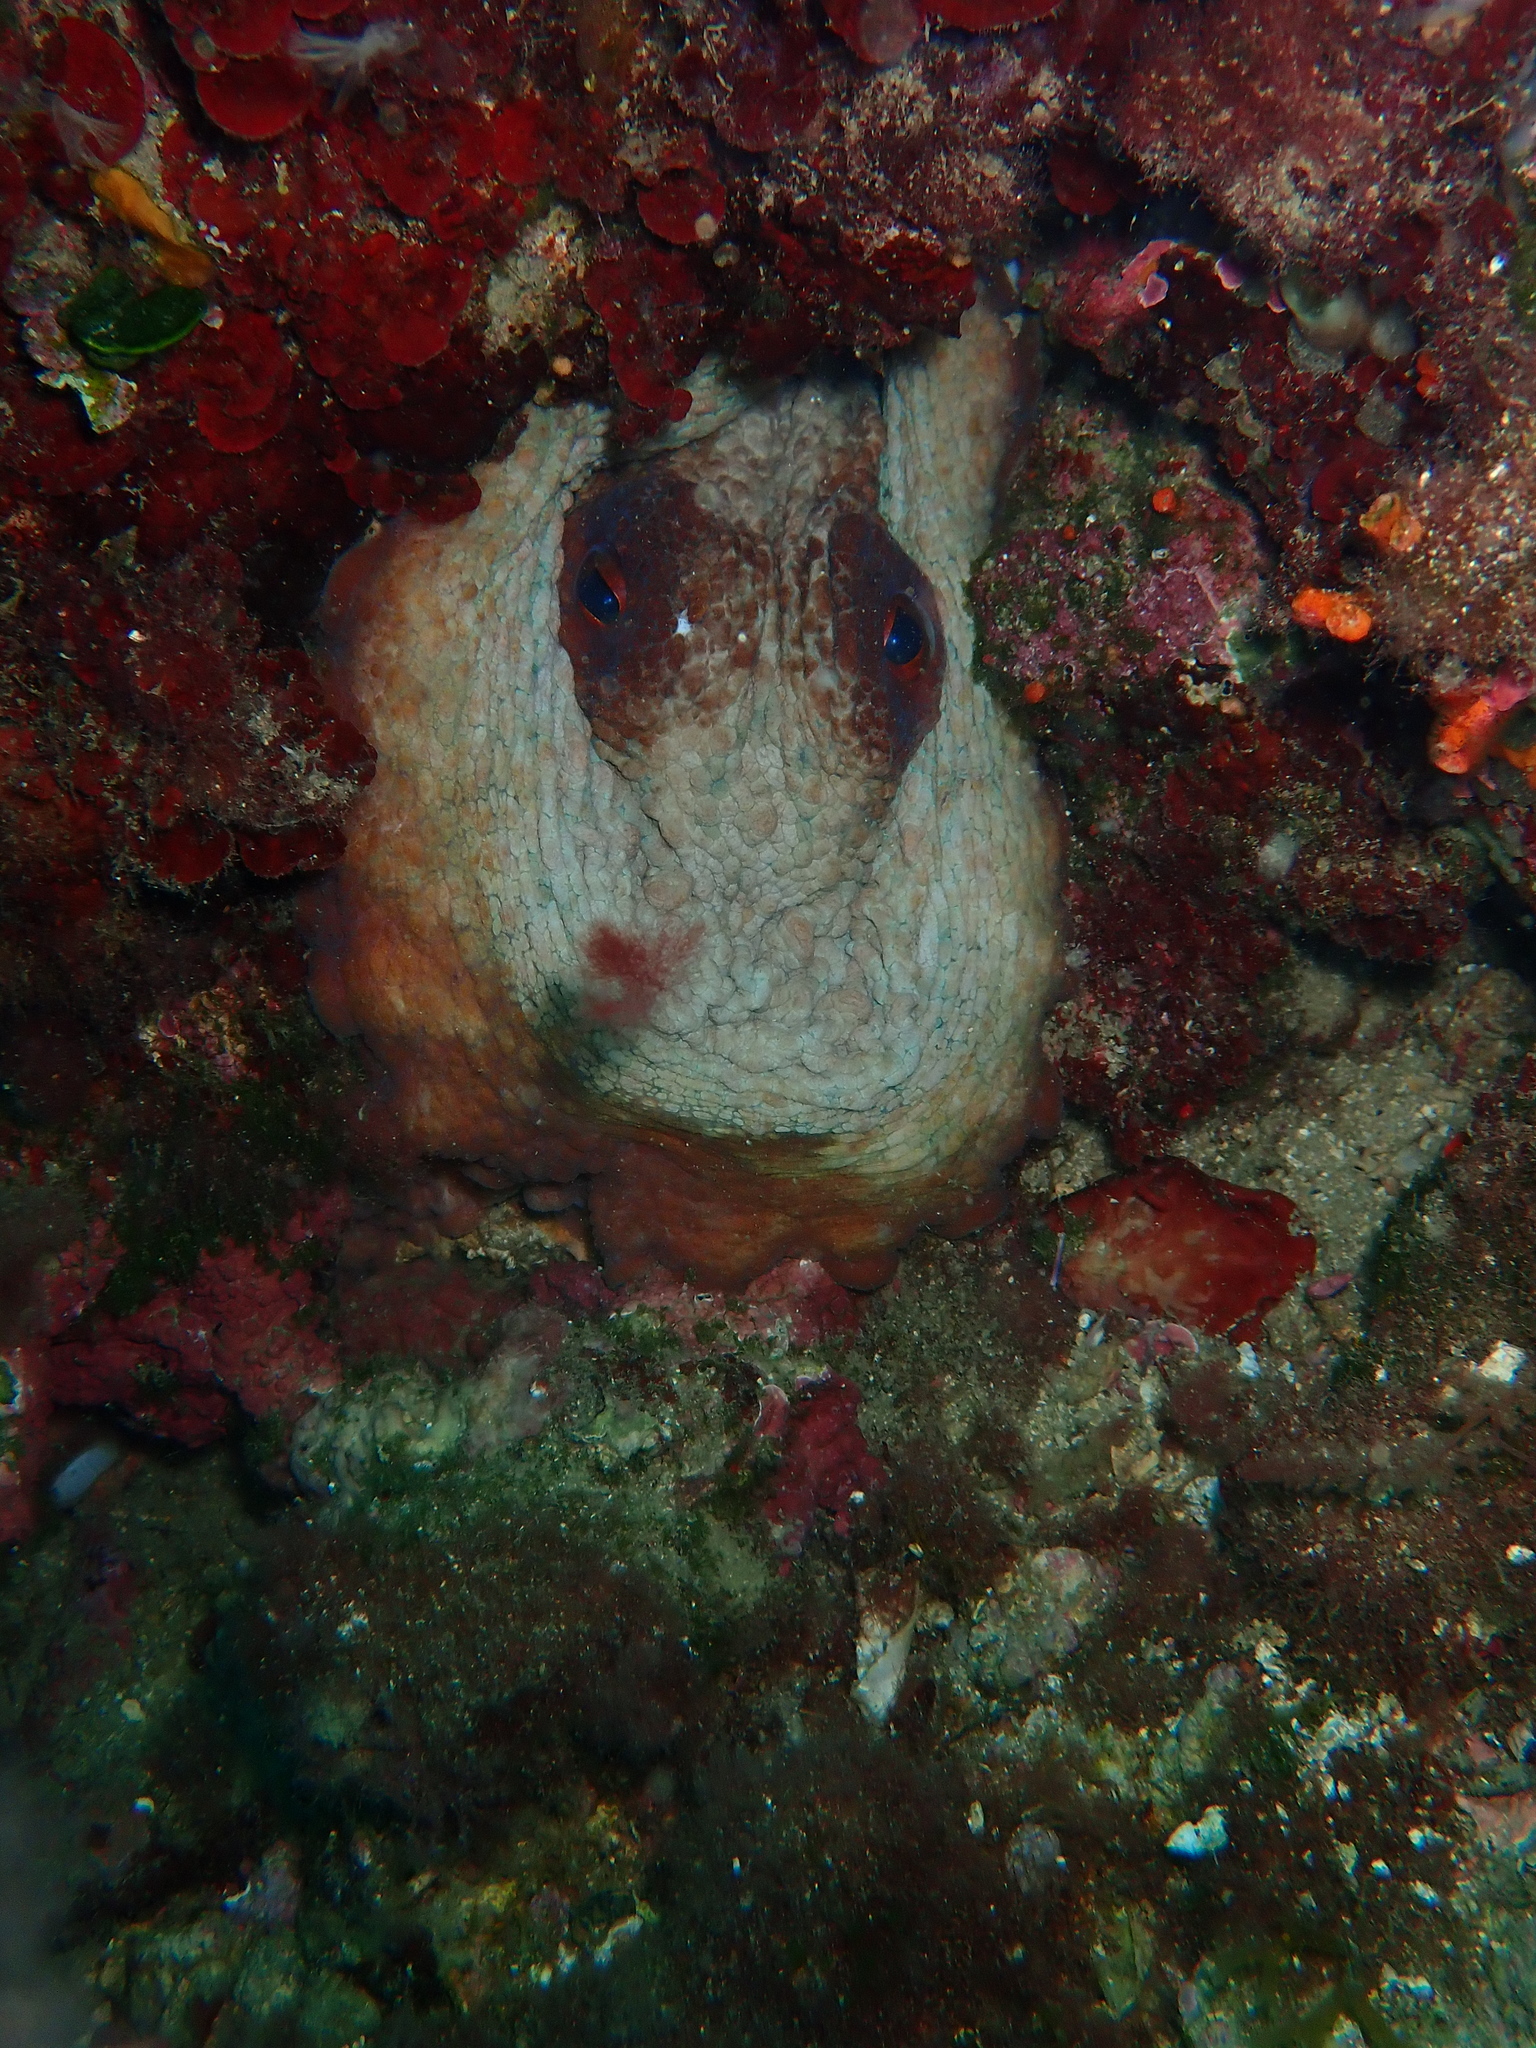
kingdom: Animalia
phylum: Mollusca
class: Cephalopoda
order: Octopoda
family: Octopodidae
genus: Octopus
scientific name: Octopus vulgaris
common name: Common octopus
